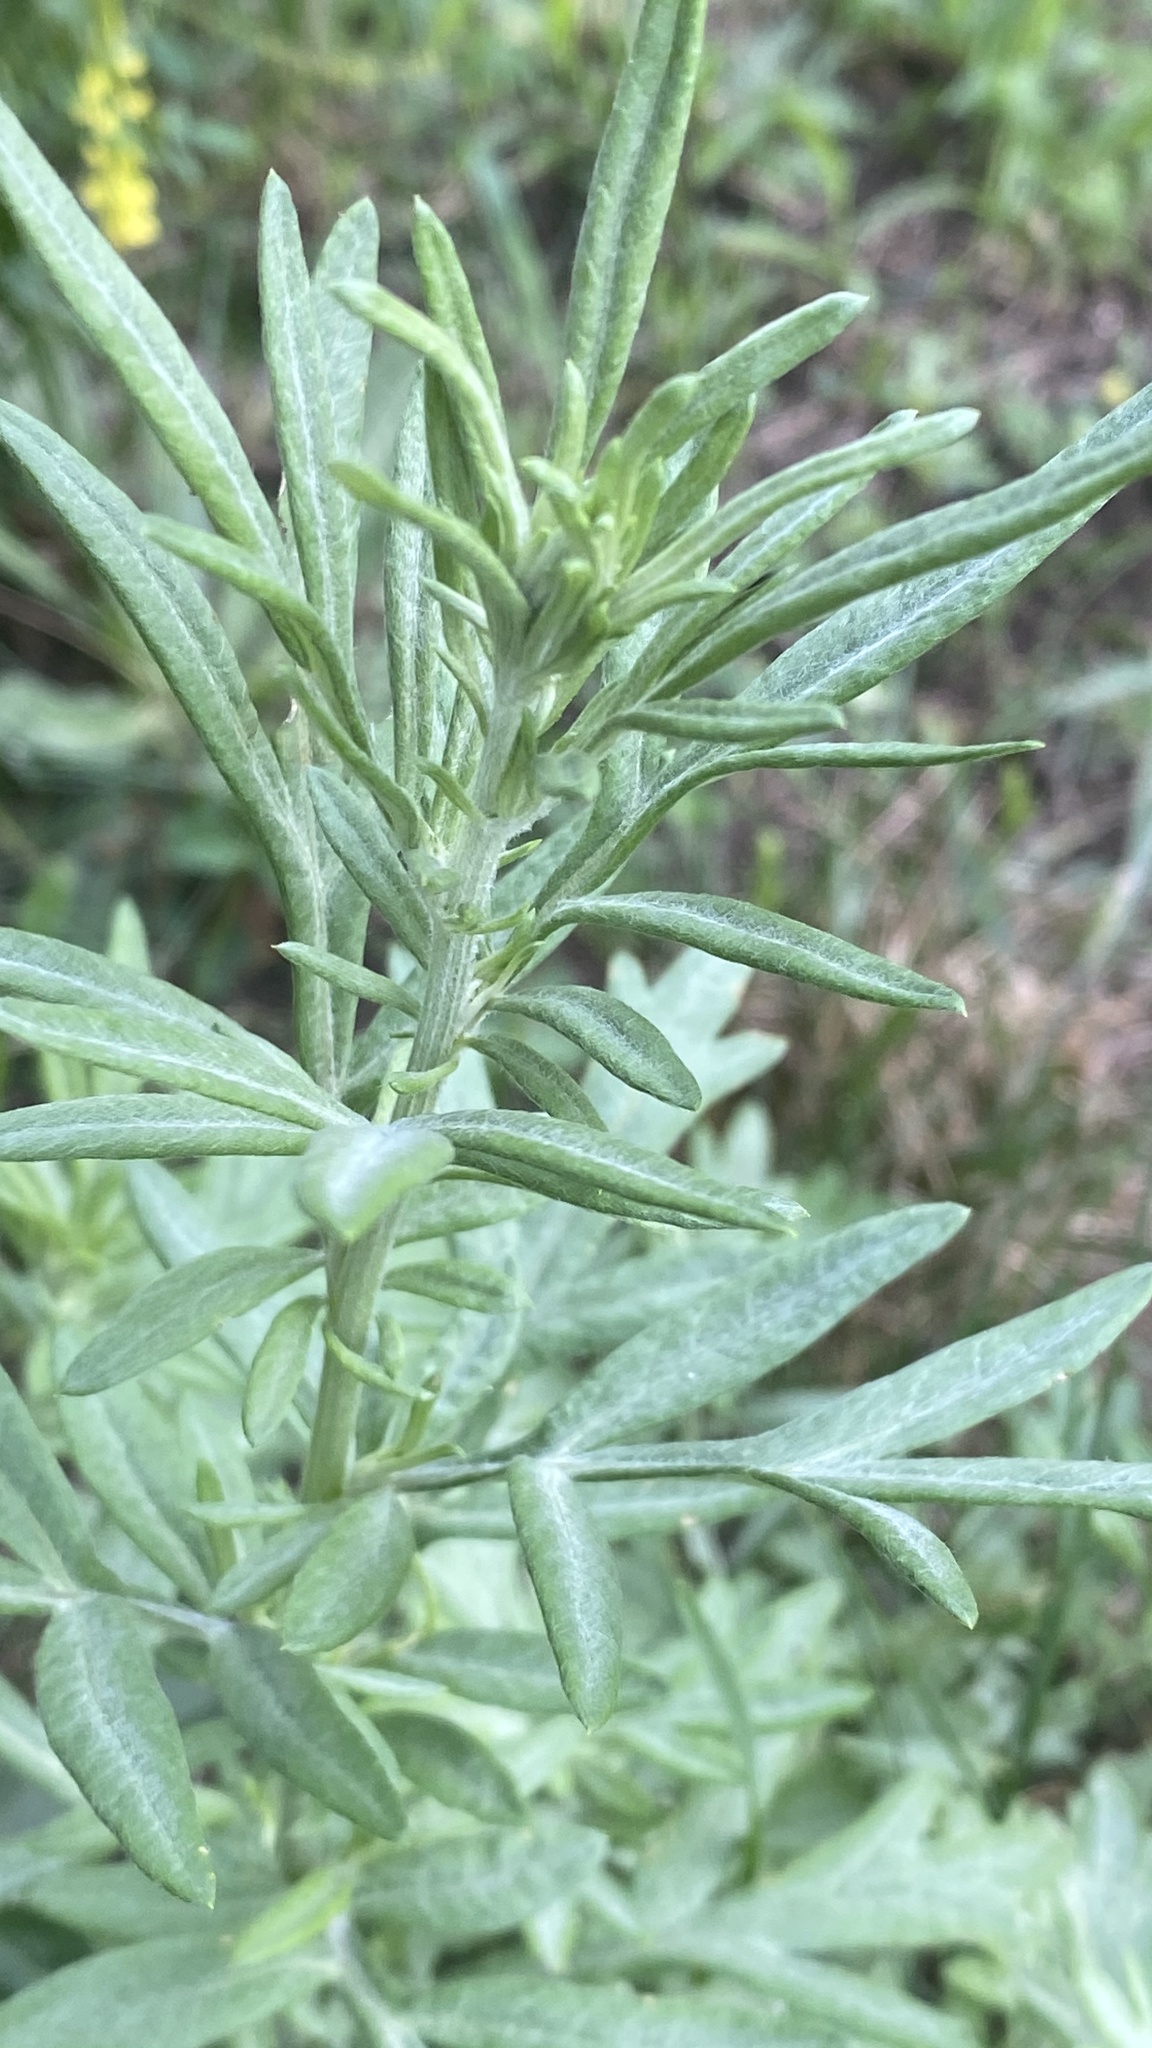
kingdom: Plantae
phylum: Tracheophyta
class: Magnoliopsida
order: Asterales
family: Asteraceae
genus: Artemisia
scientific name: Artemisia vulgaris
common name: Mugwort
